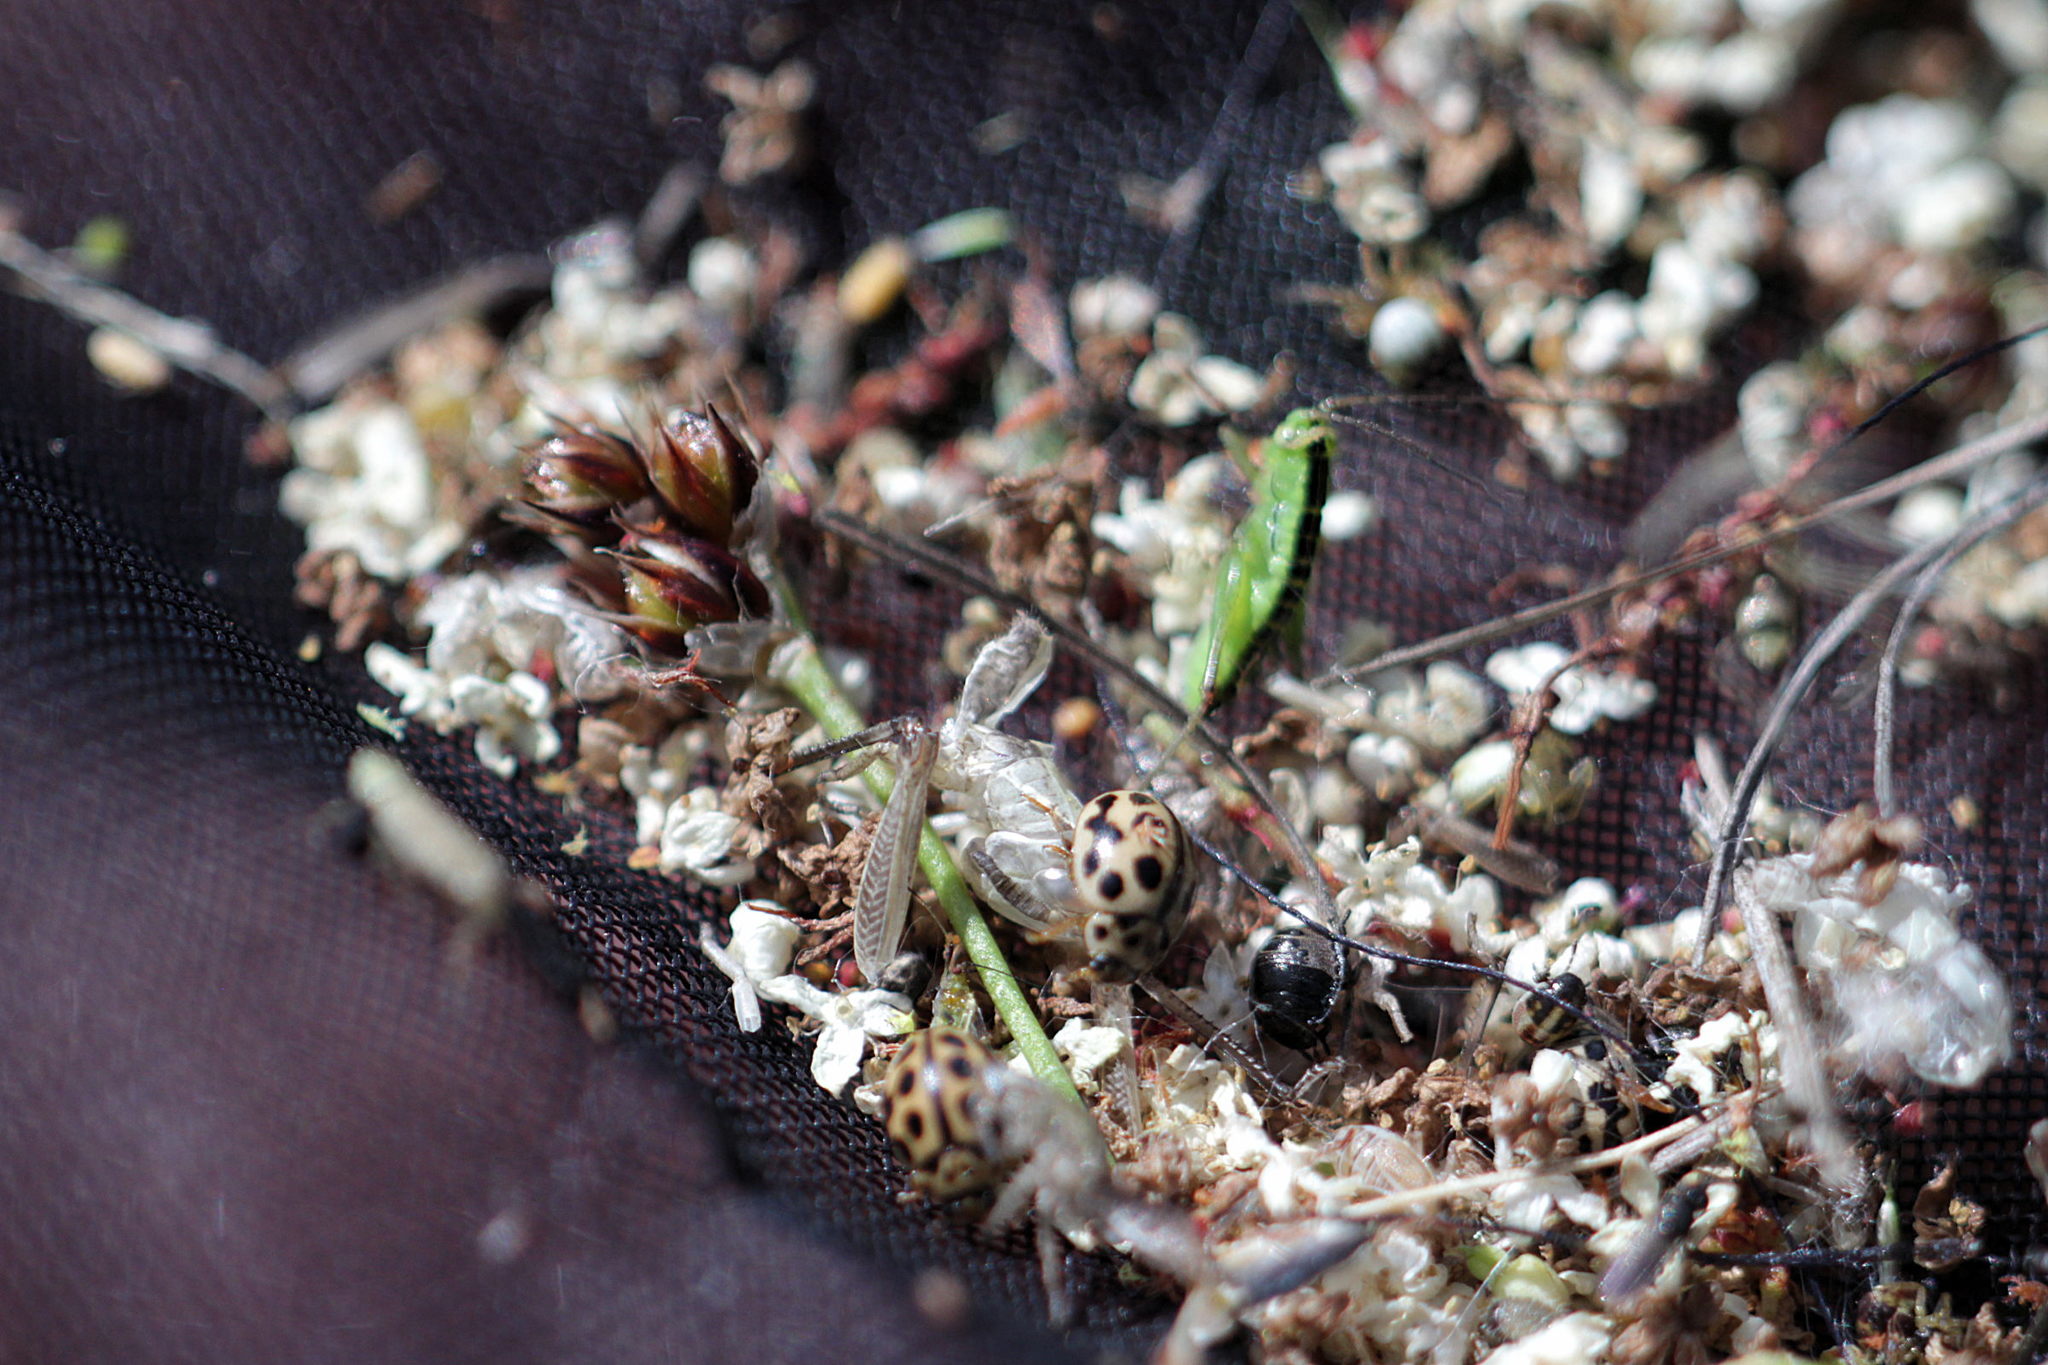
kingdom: Animalia
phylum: Arthropoda
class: Insecta
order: Coleoptera
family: Coccinellidae
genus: Tytthaspis
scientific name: Tytthaspis sedecimpunctata
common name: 16-spot ladybird
